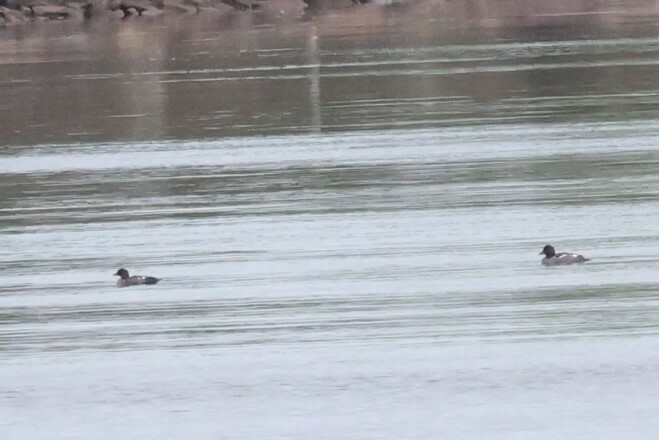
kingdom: Animalia
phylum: Chordata
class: Aves
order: Anseriformes
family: Anatidae
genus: Bucephala
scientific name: Bucephala clangula
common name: Common goldeneye
